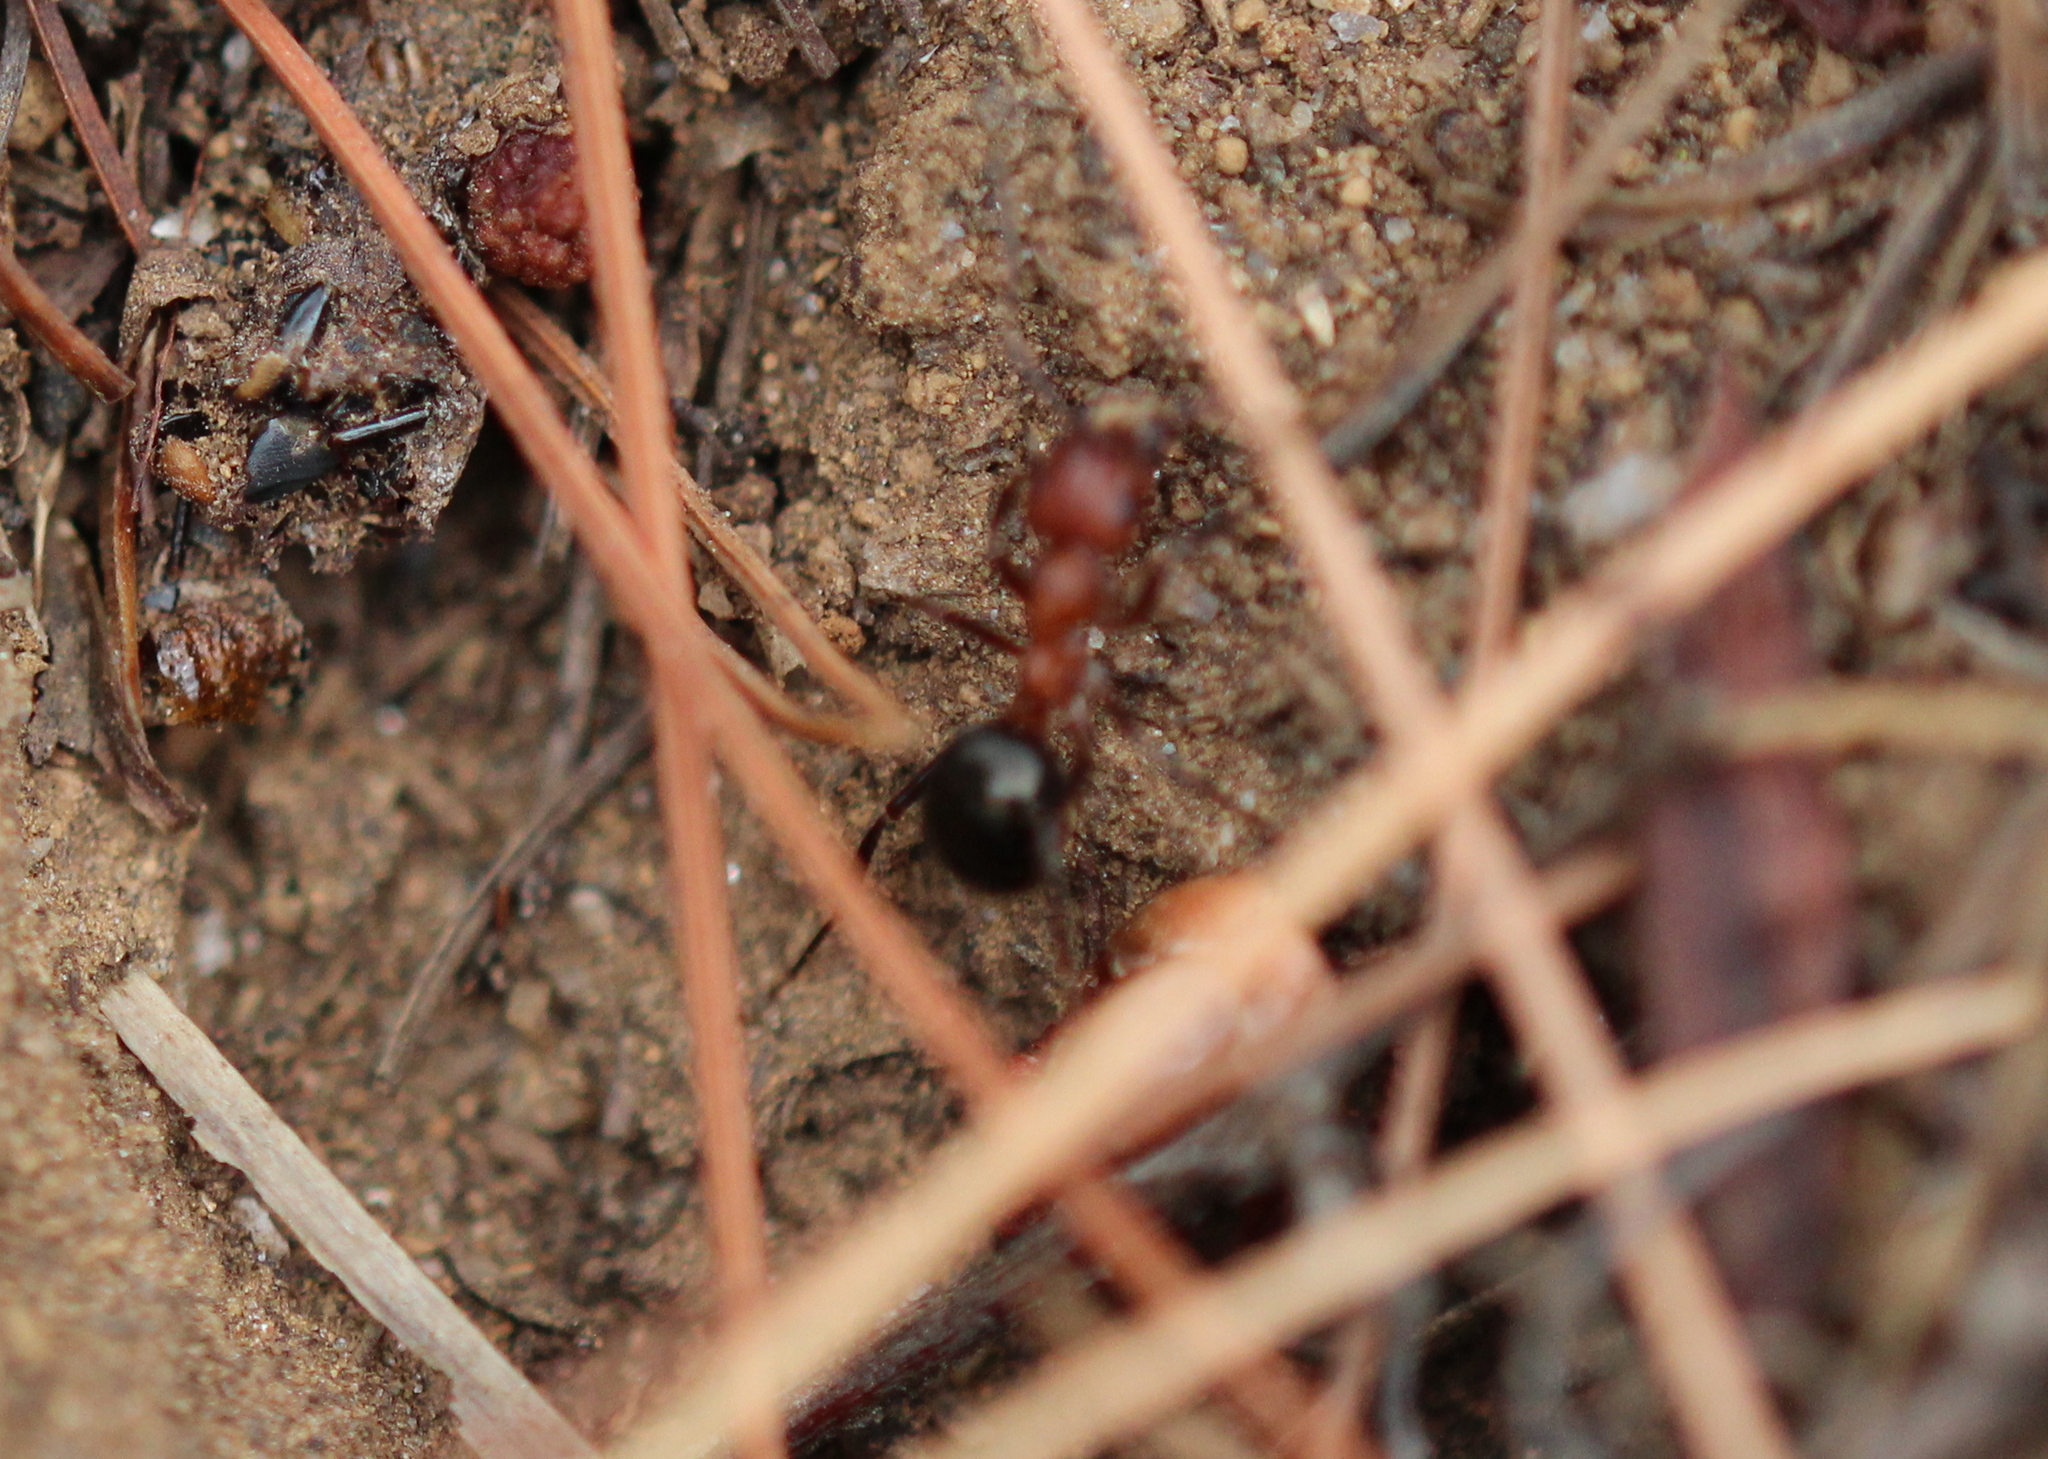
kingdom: Animalia
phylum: Arthropoda
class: Insecta
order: Hymenoptera
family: Formicidae
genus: Formica
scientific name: Formica exsectoides
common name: Allegheny mound ant
